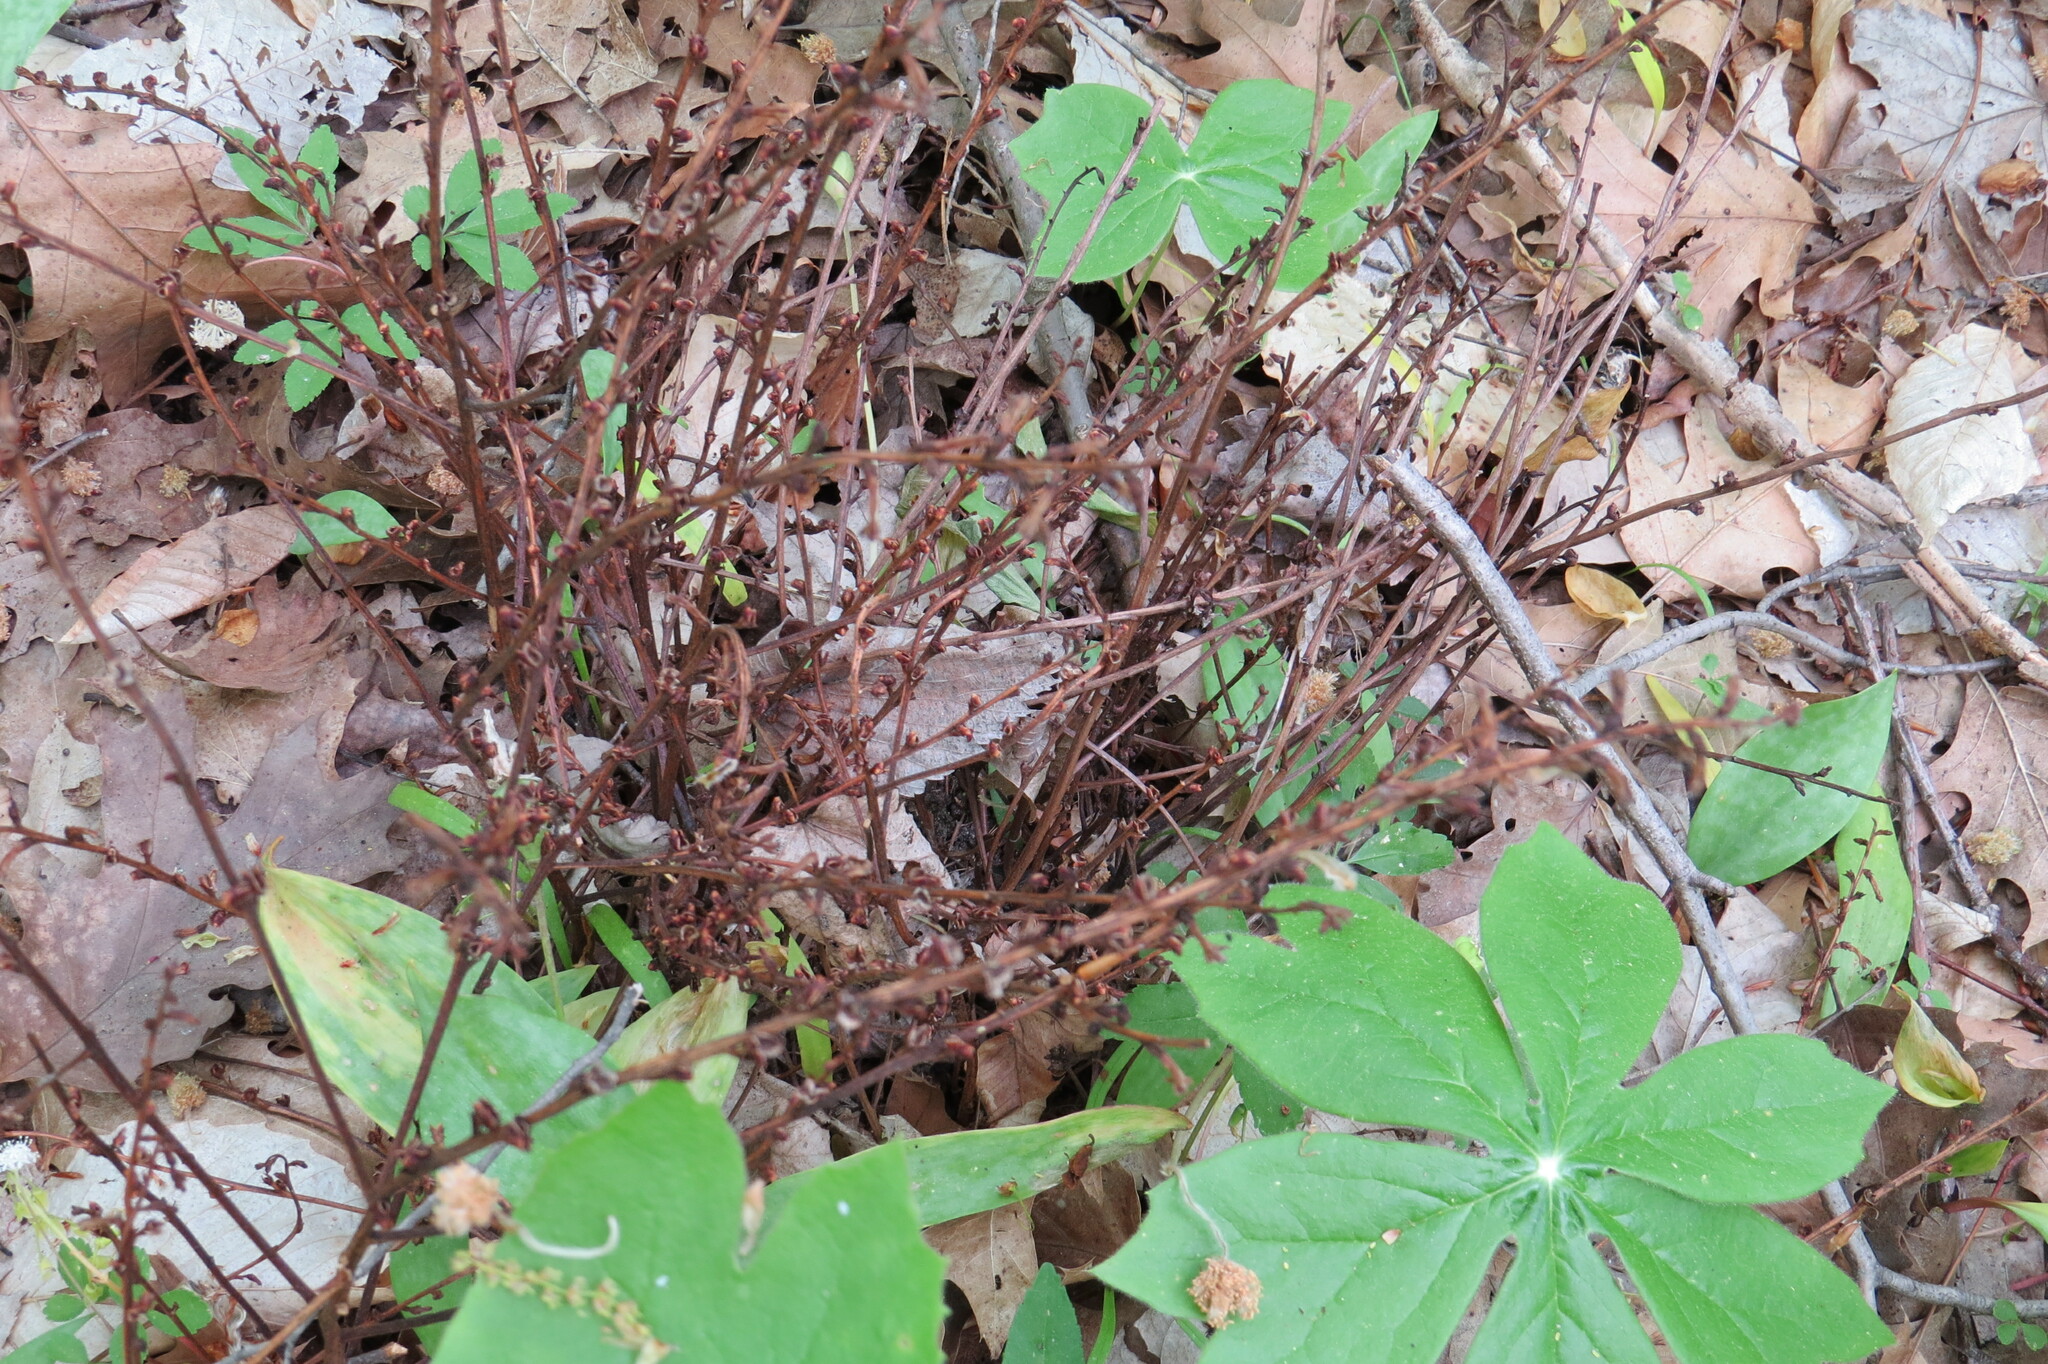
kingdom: Plantae
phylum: Tracheophyta
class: Magnoliopsida
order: Lamiales
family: Orobanchaceae
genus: Epifagus
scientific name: Epifagus virginiana
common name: Beechdrops
